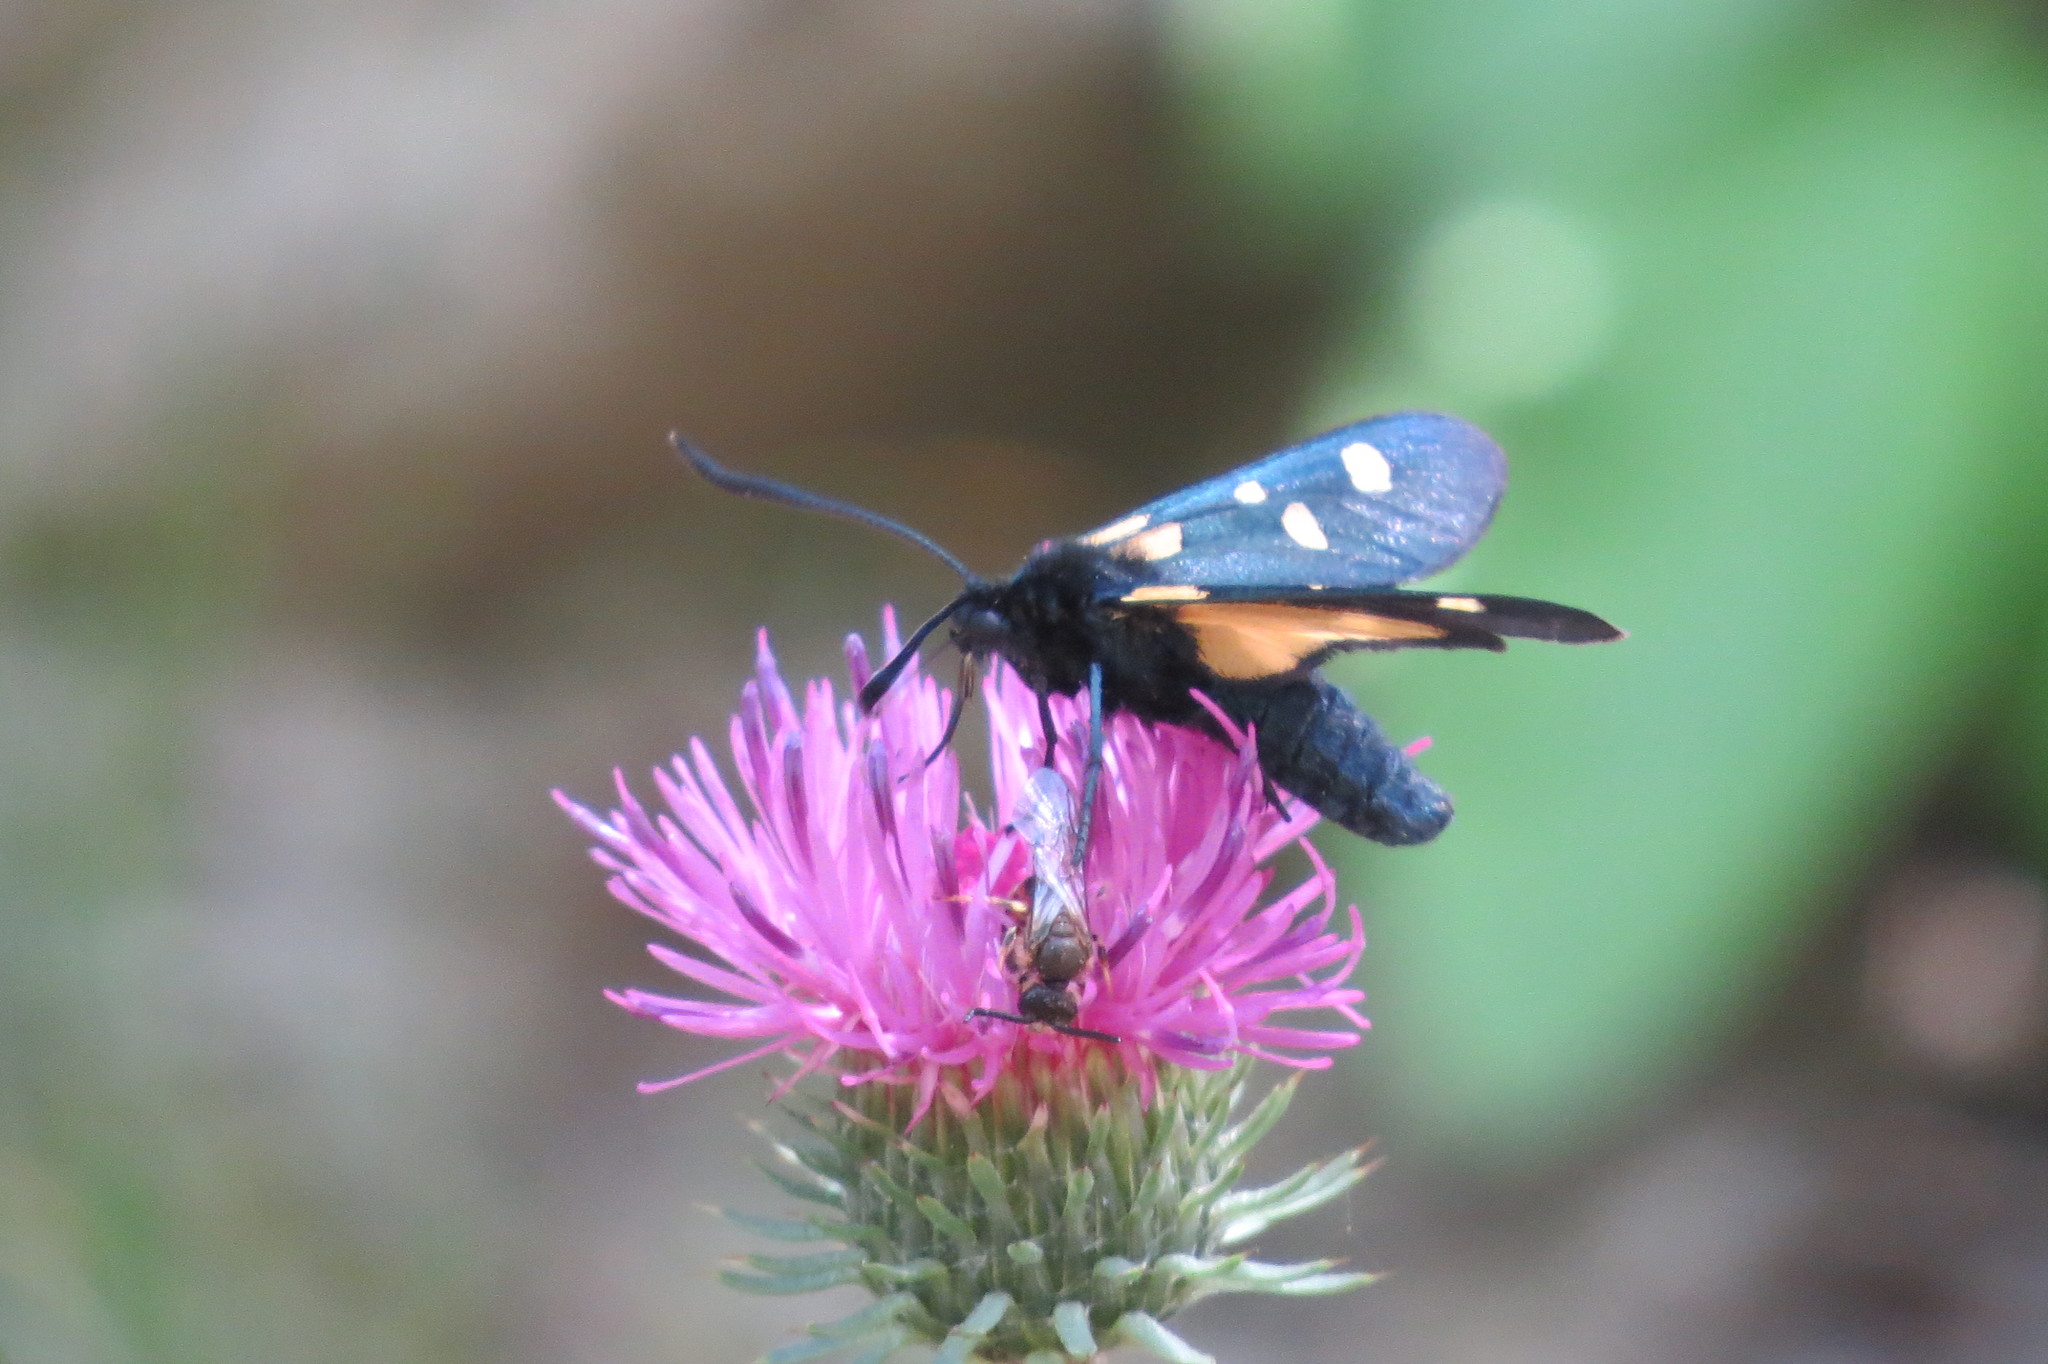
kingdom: Animalia
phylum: Arthropoda
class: Insecta
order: Lepidoptera
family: Zygaenidae
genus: Zygaena
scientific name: Zygaena lonicerae
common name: Narrow-bordered five-spot burnet
